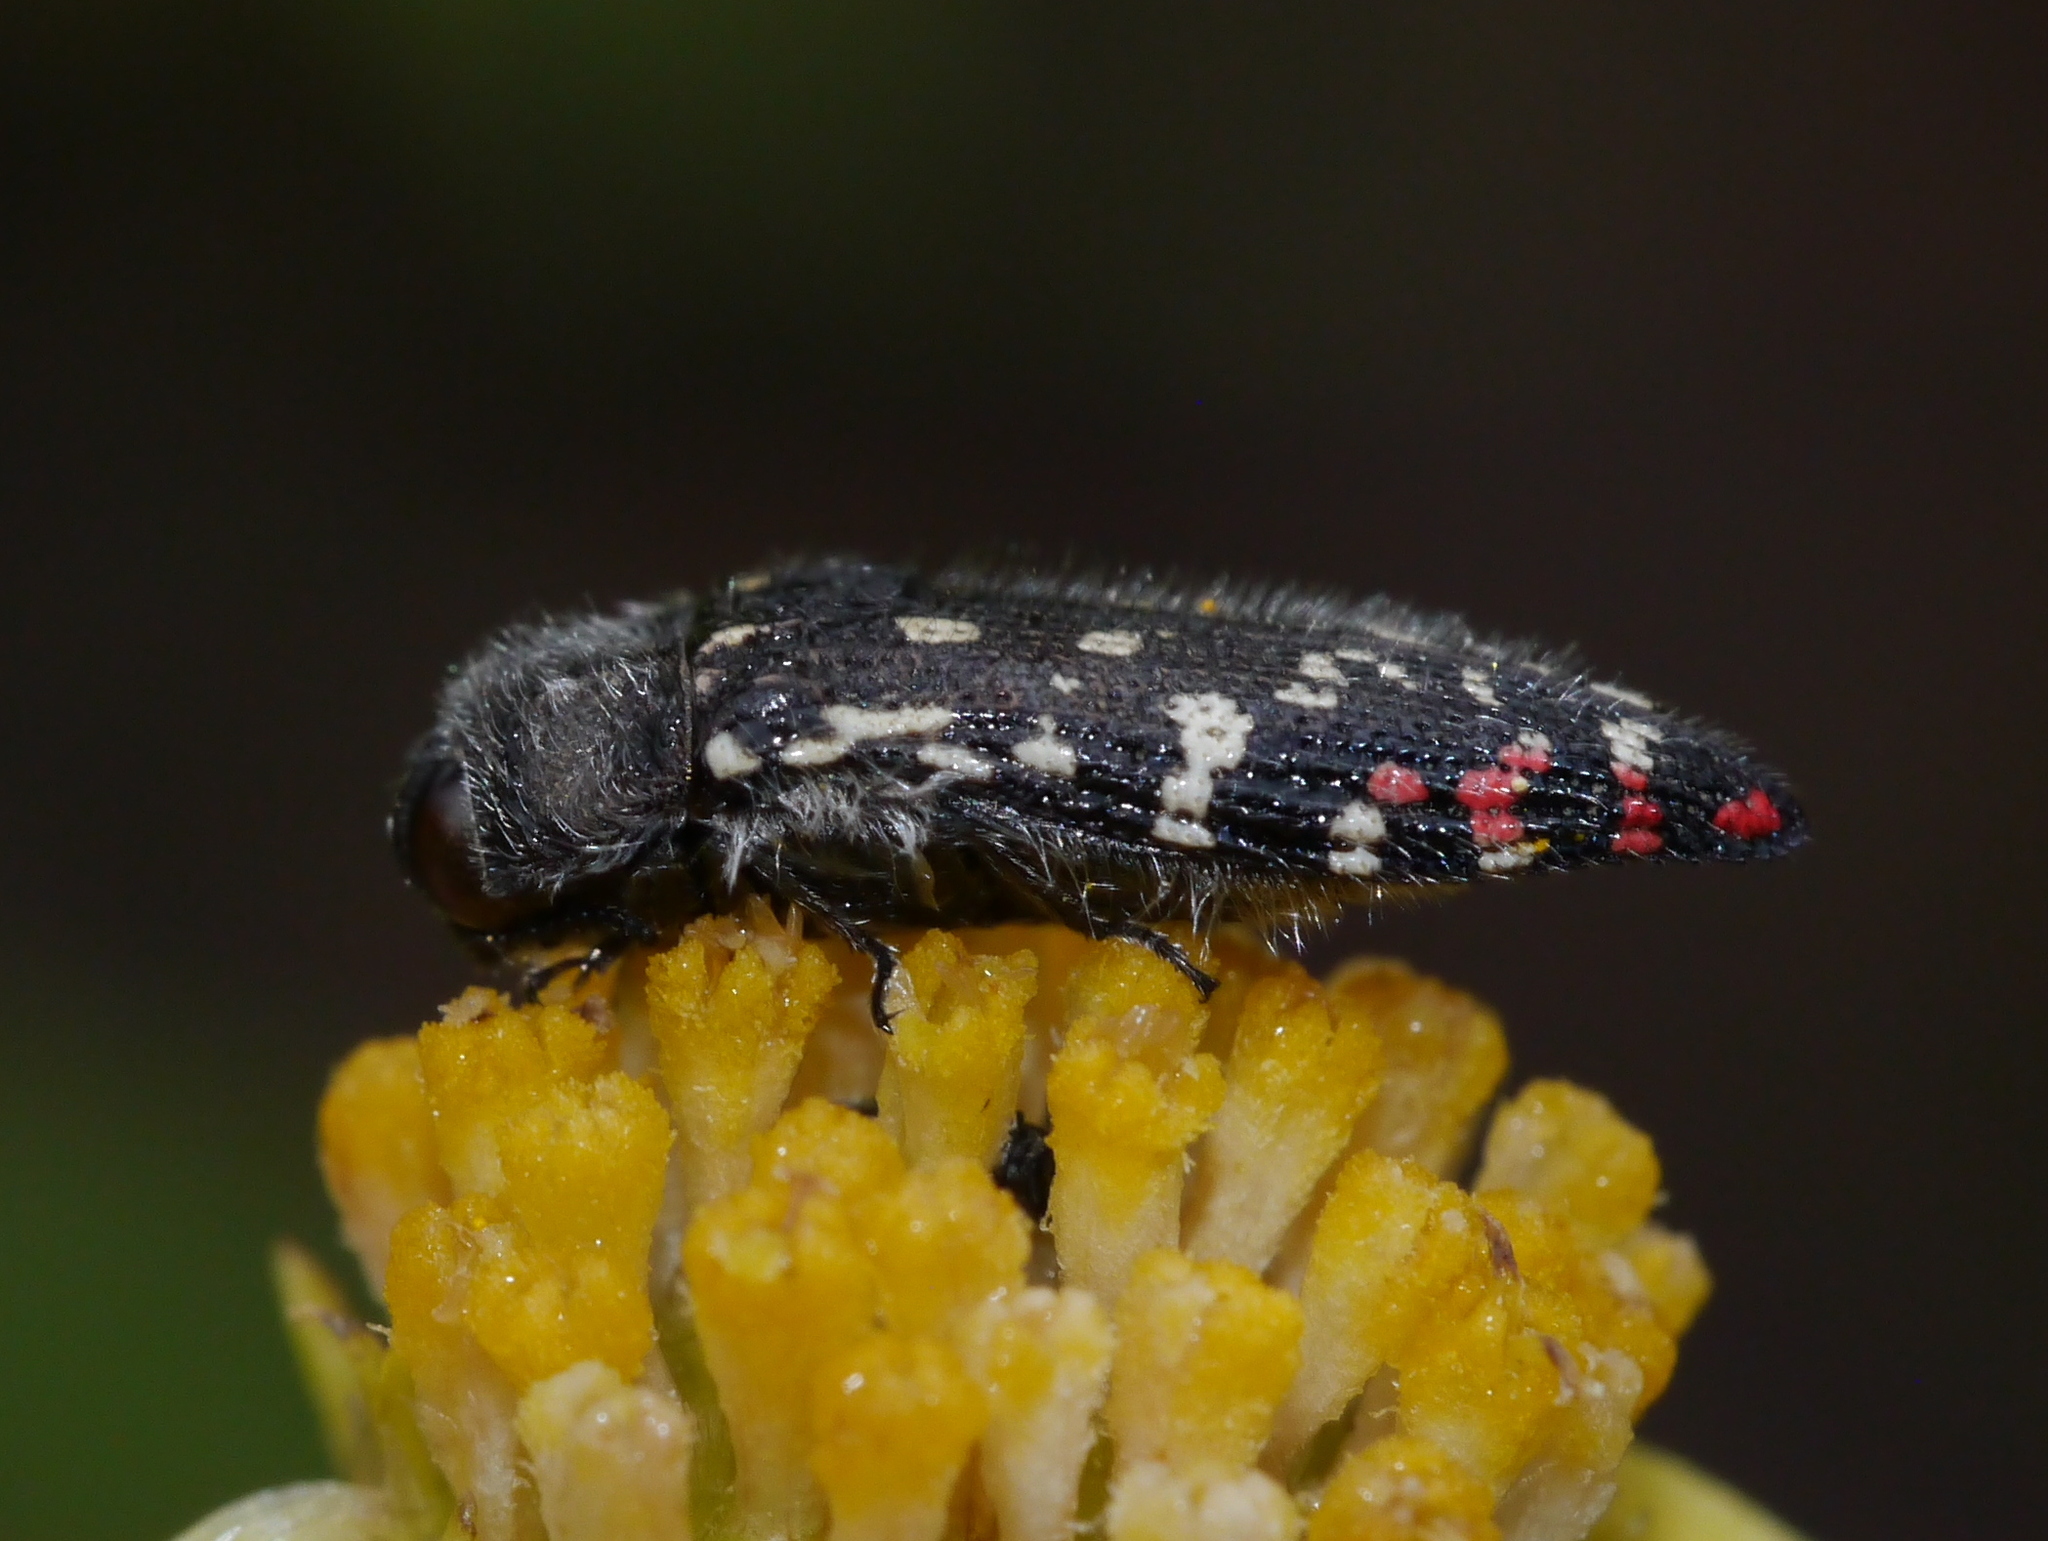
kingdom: Animalia
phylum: Arthropoda
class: Insecta
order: Coleoptera
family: Buprestidae
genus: Acmaeodera
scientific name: Acmaeodera rubronotata
